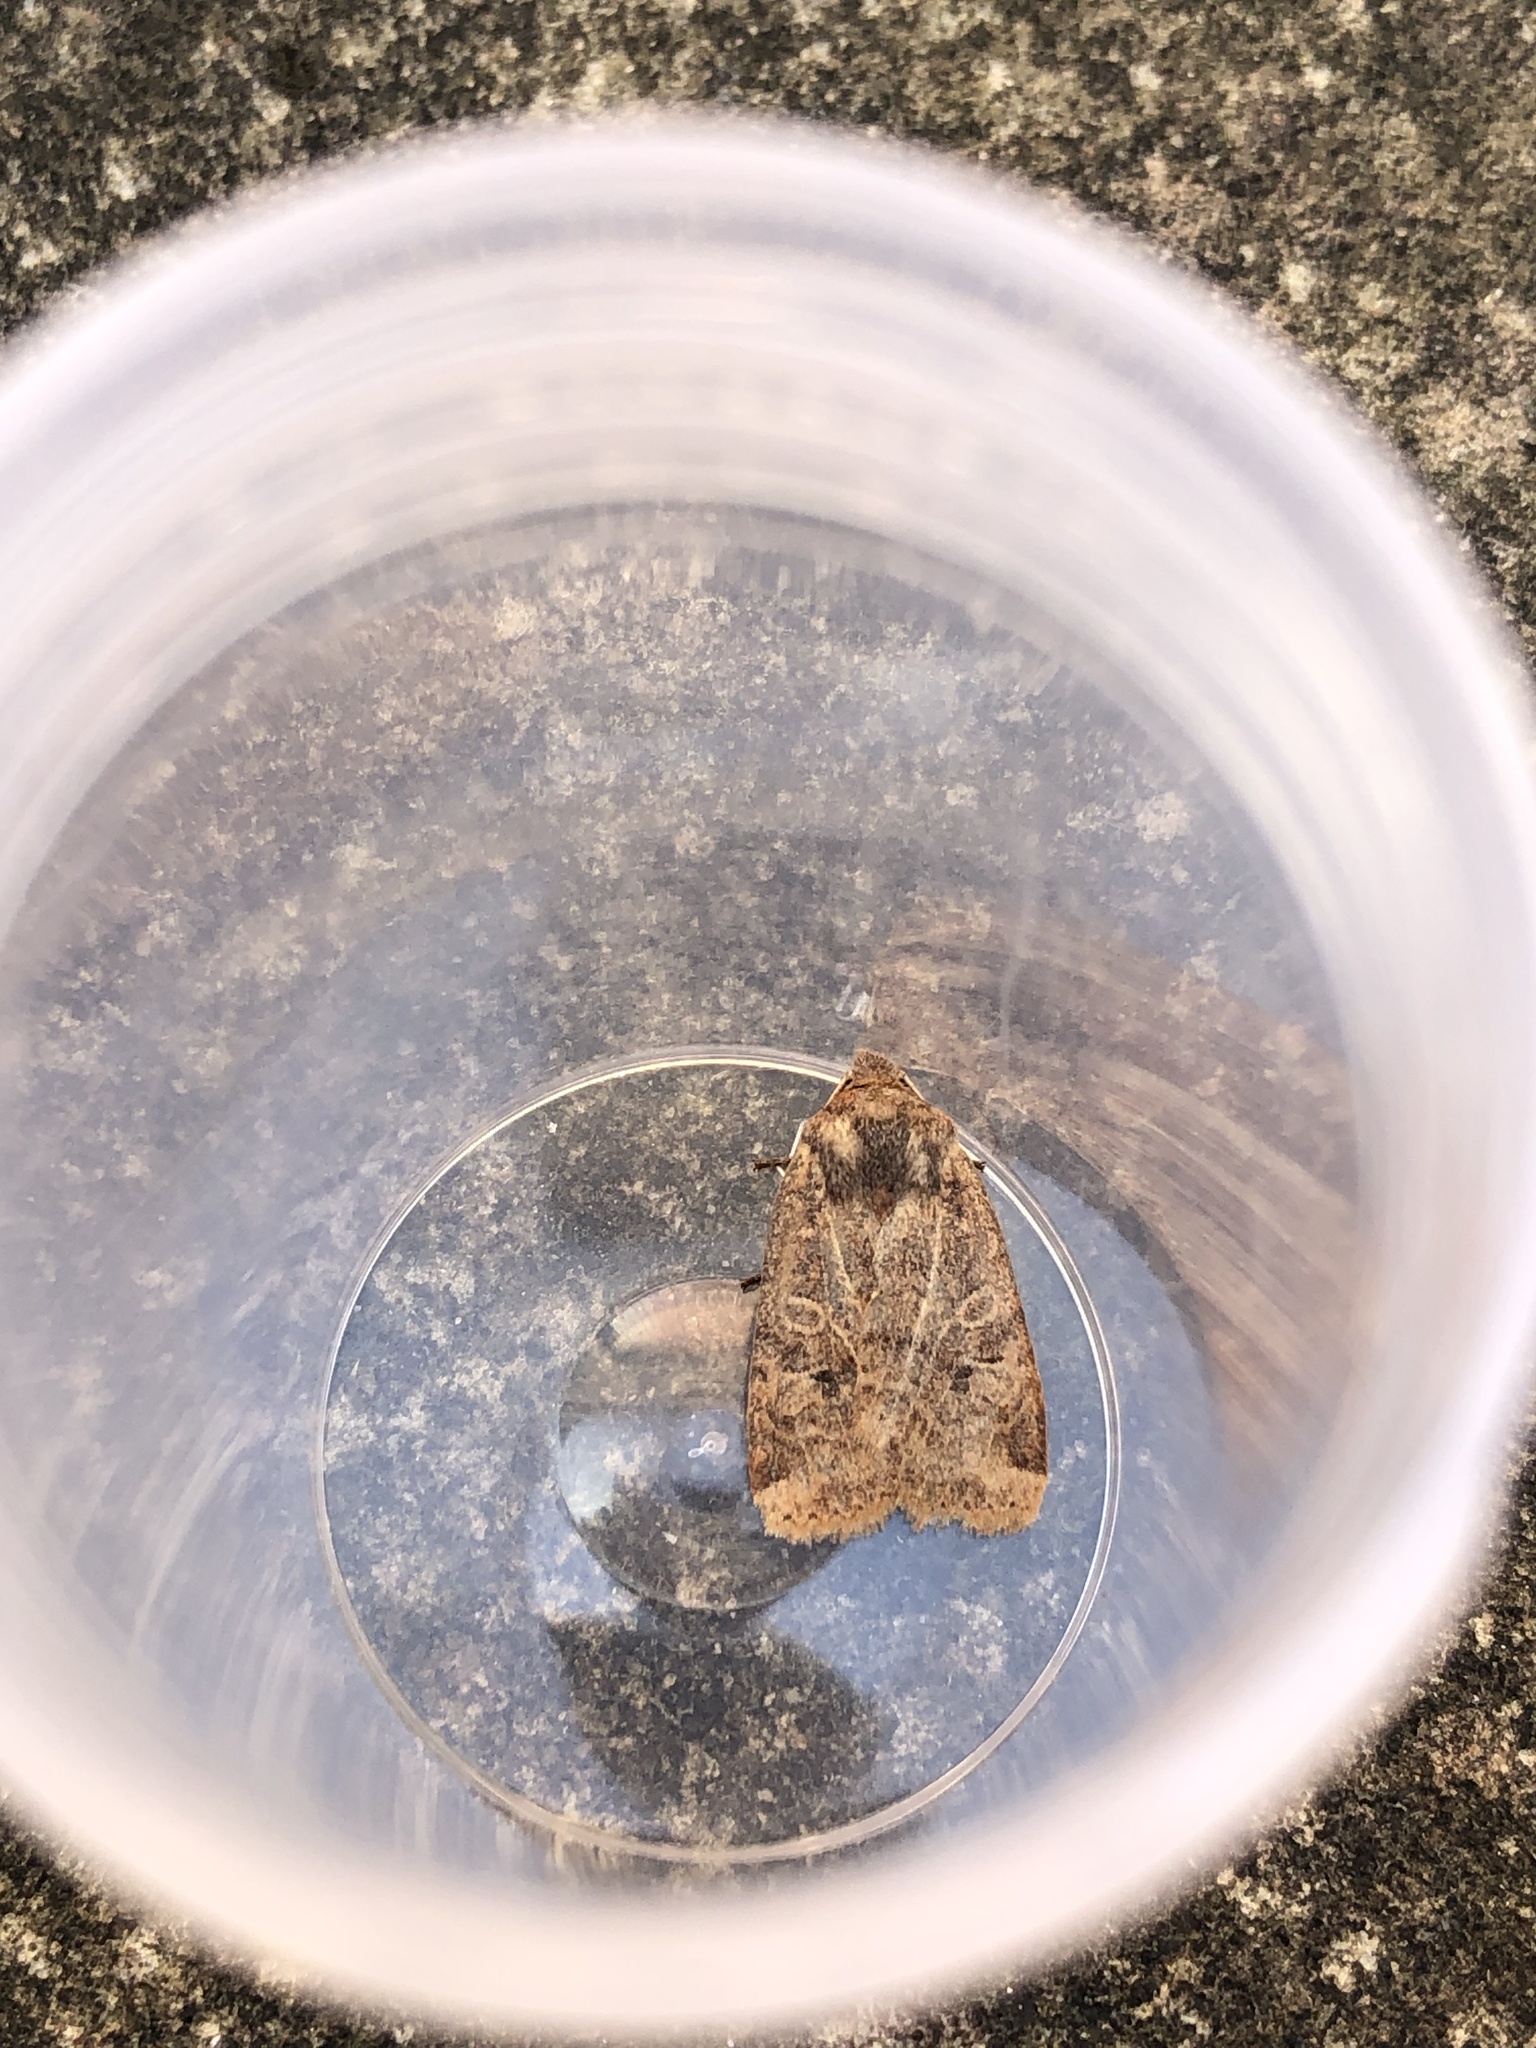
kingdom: Animalia
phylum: Arthropoda
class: Insecta
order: Lepidoptera
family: Noctuidae
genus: Conistra
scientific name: Conistra vaccinii
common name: Chestnut
